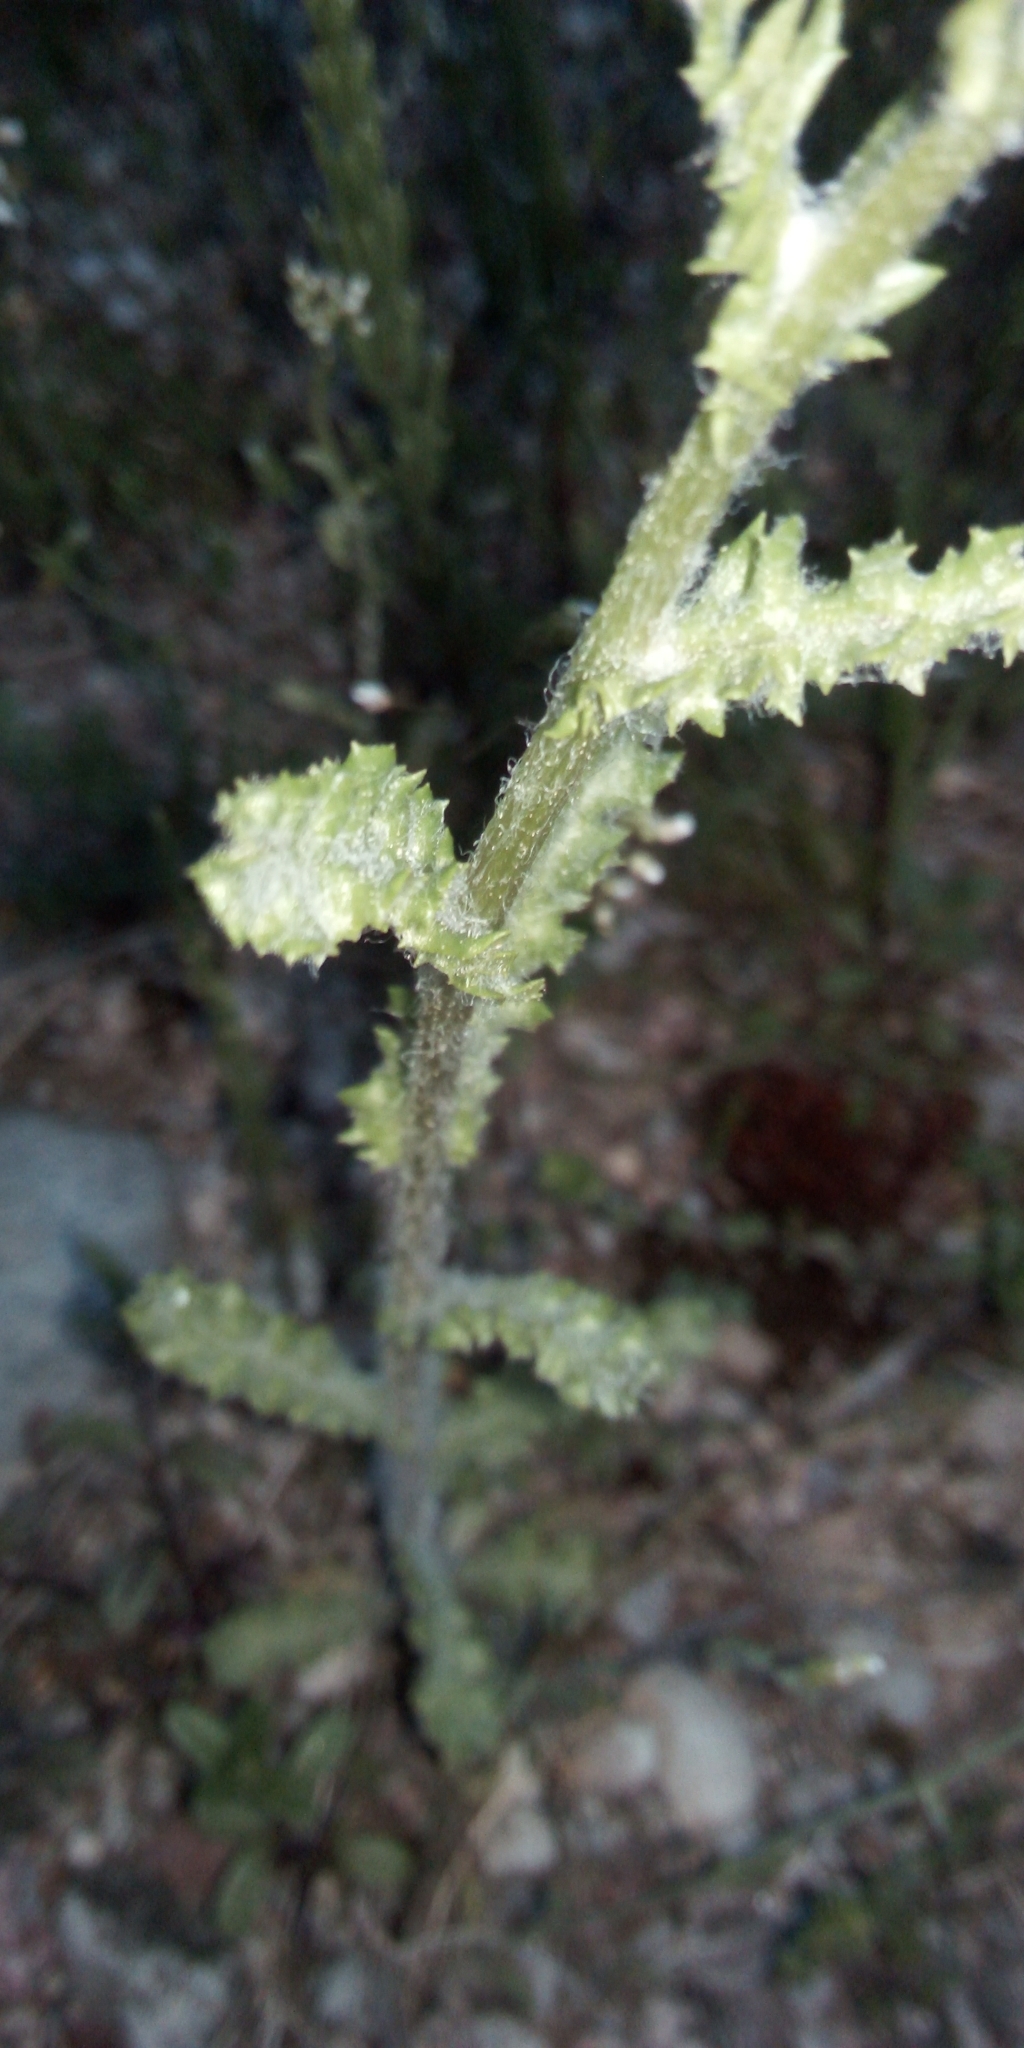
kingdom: Plantae
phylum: Tracheophyta
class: Magnoliopsida
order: Asterales
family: Asteraceae
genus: Senecio
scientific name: Senecio vernalis
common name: Eastern groundsel
